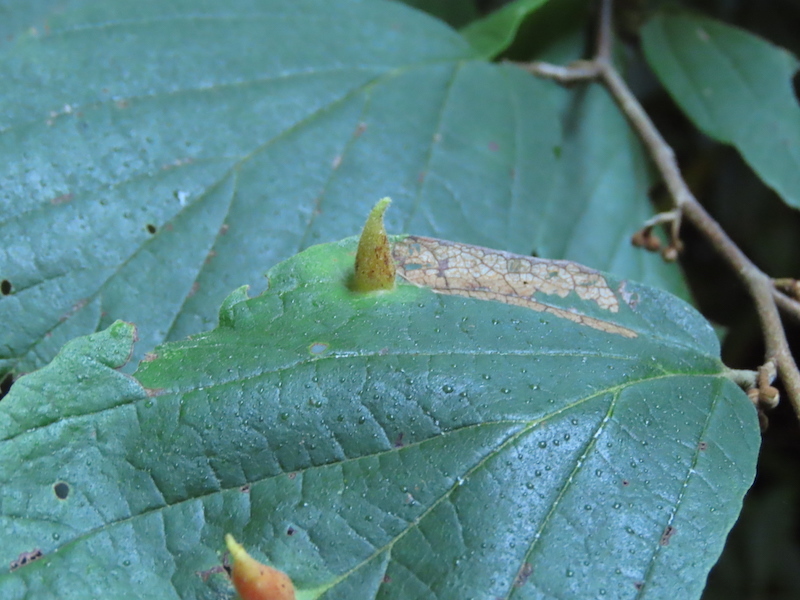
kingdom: Animalia
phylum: Arthropoda
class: Insecta
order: Hemiptera
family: Aphididae
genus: Hormaphis
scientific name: Hormaphis hamamelidis
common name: Witch-hazel cone gall aphid
